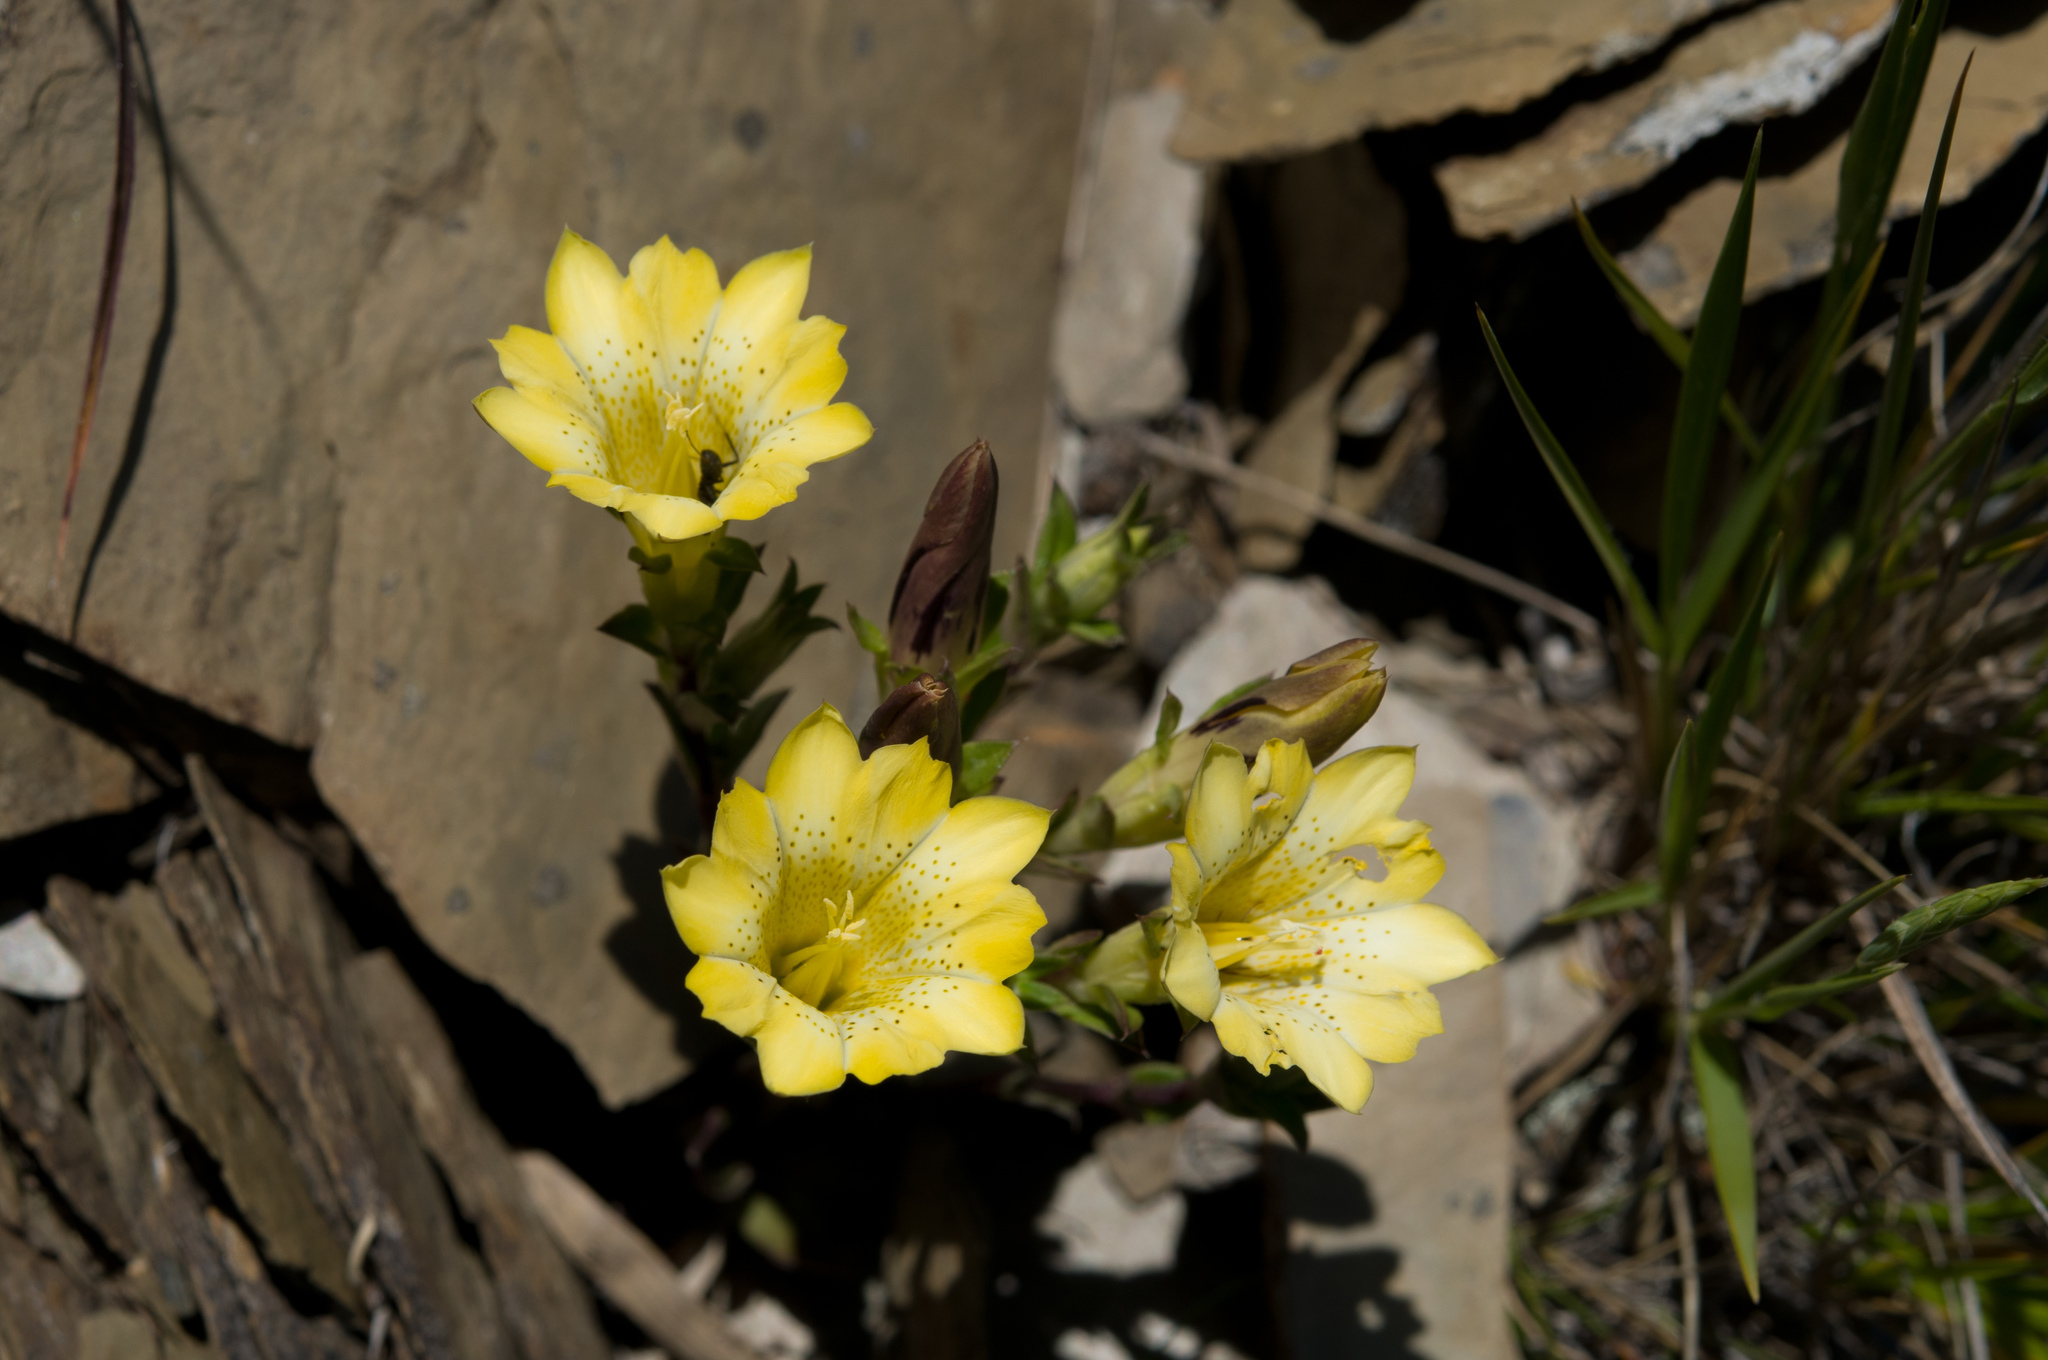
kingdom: Plantae
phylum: Tracheophyta
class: Magnoliopsida
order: Gentianales
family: Gentianaceae
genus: Gentiana
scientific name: Gentiana scabrida
